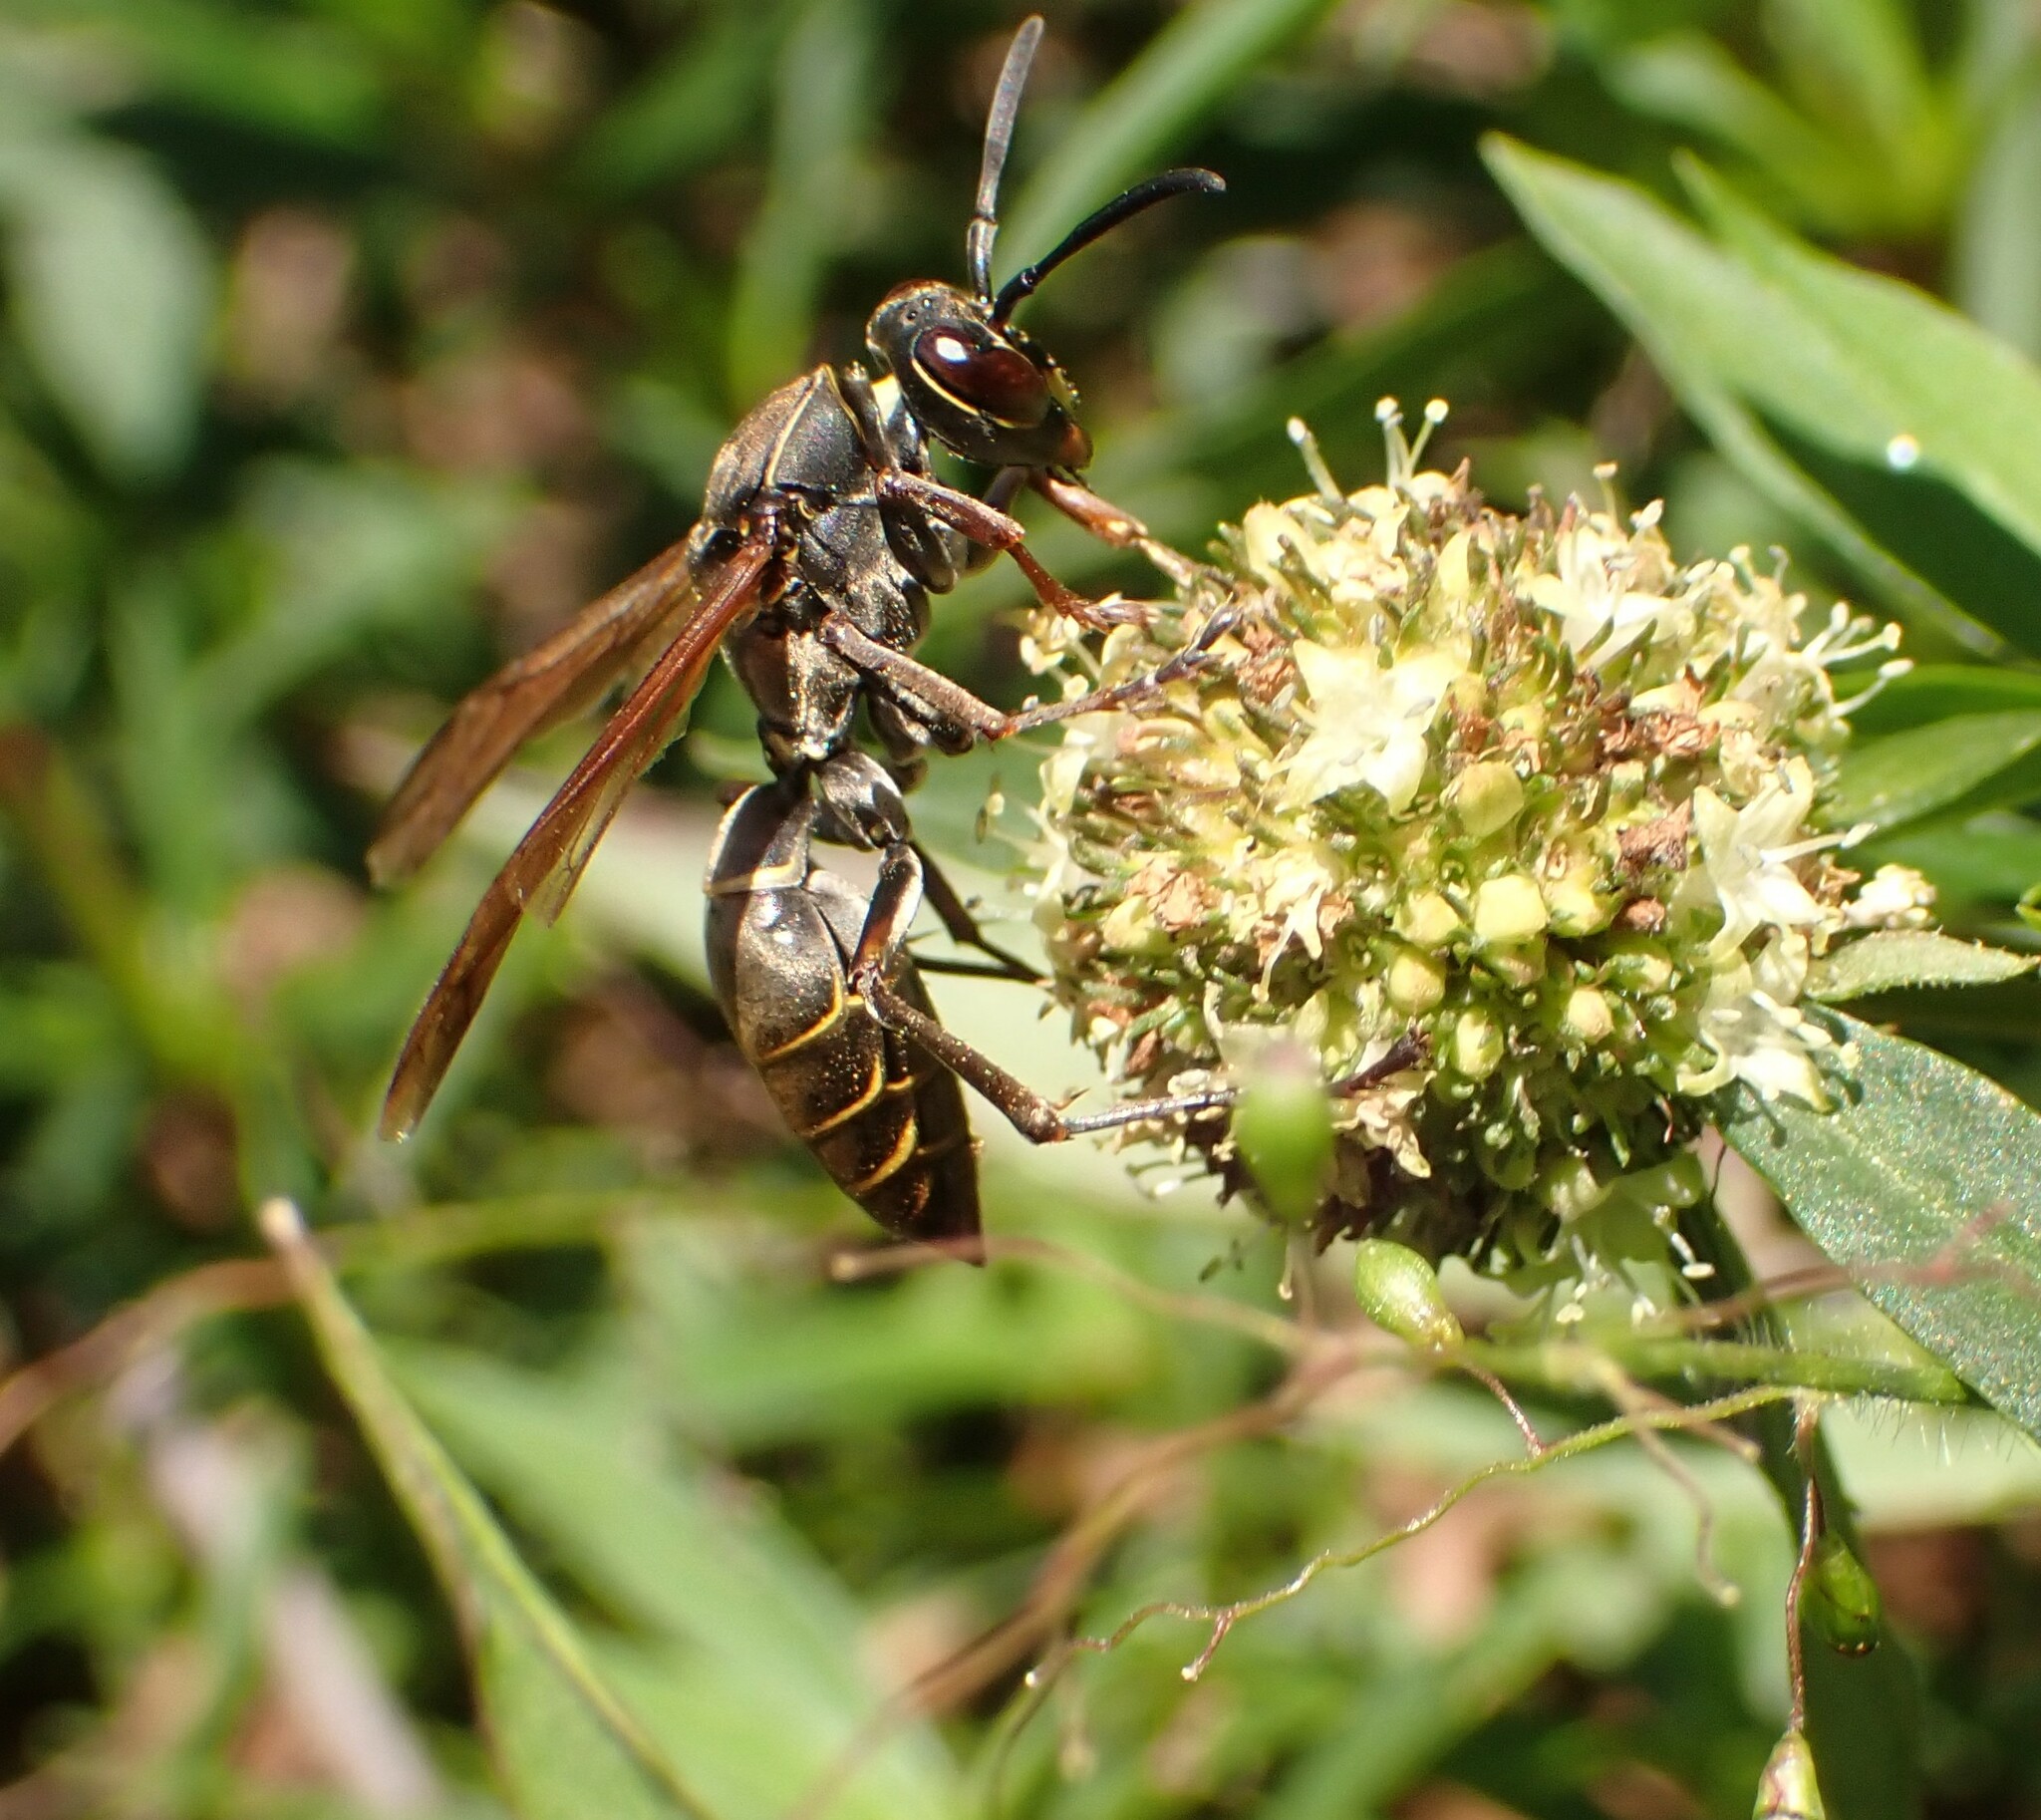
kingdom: Animalia
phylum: Arthropoda
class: Insecta
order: Hymenoptera
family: Eumenidae
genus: Polistes
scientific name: Polistes cinerascens
